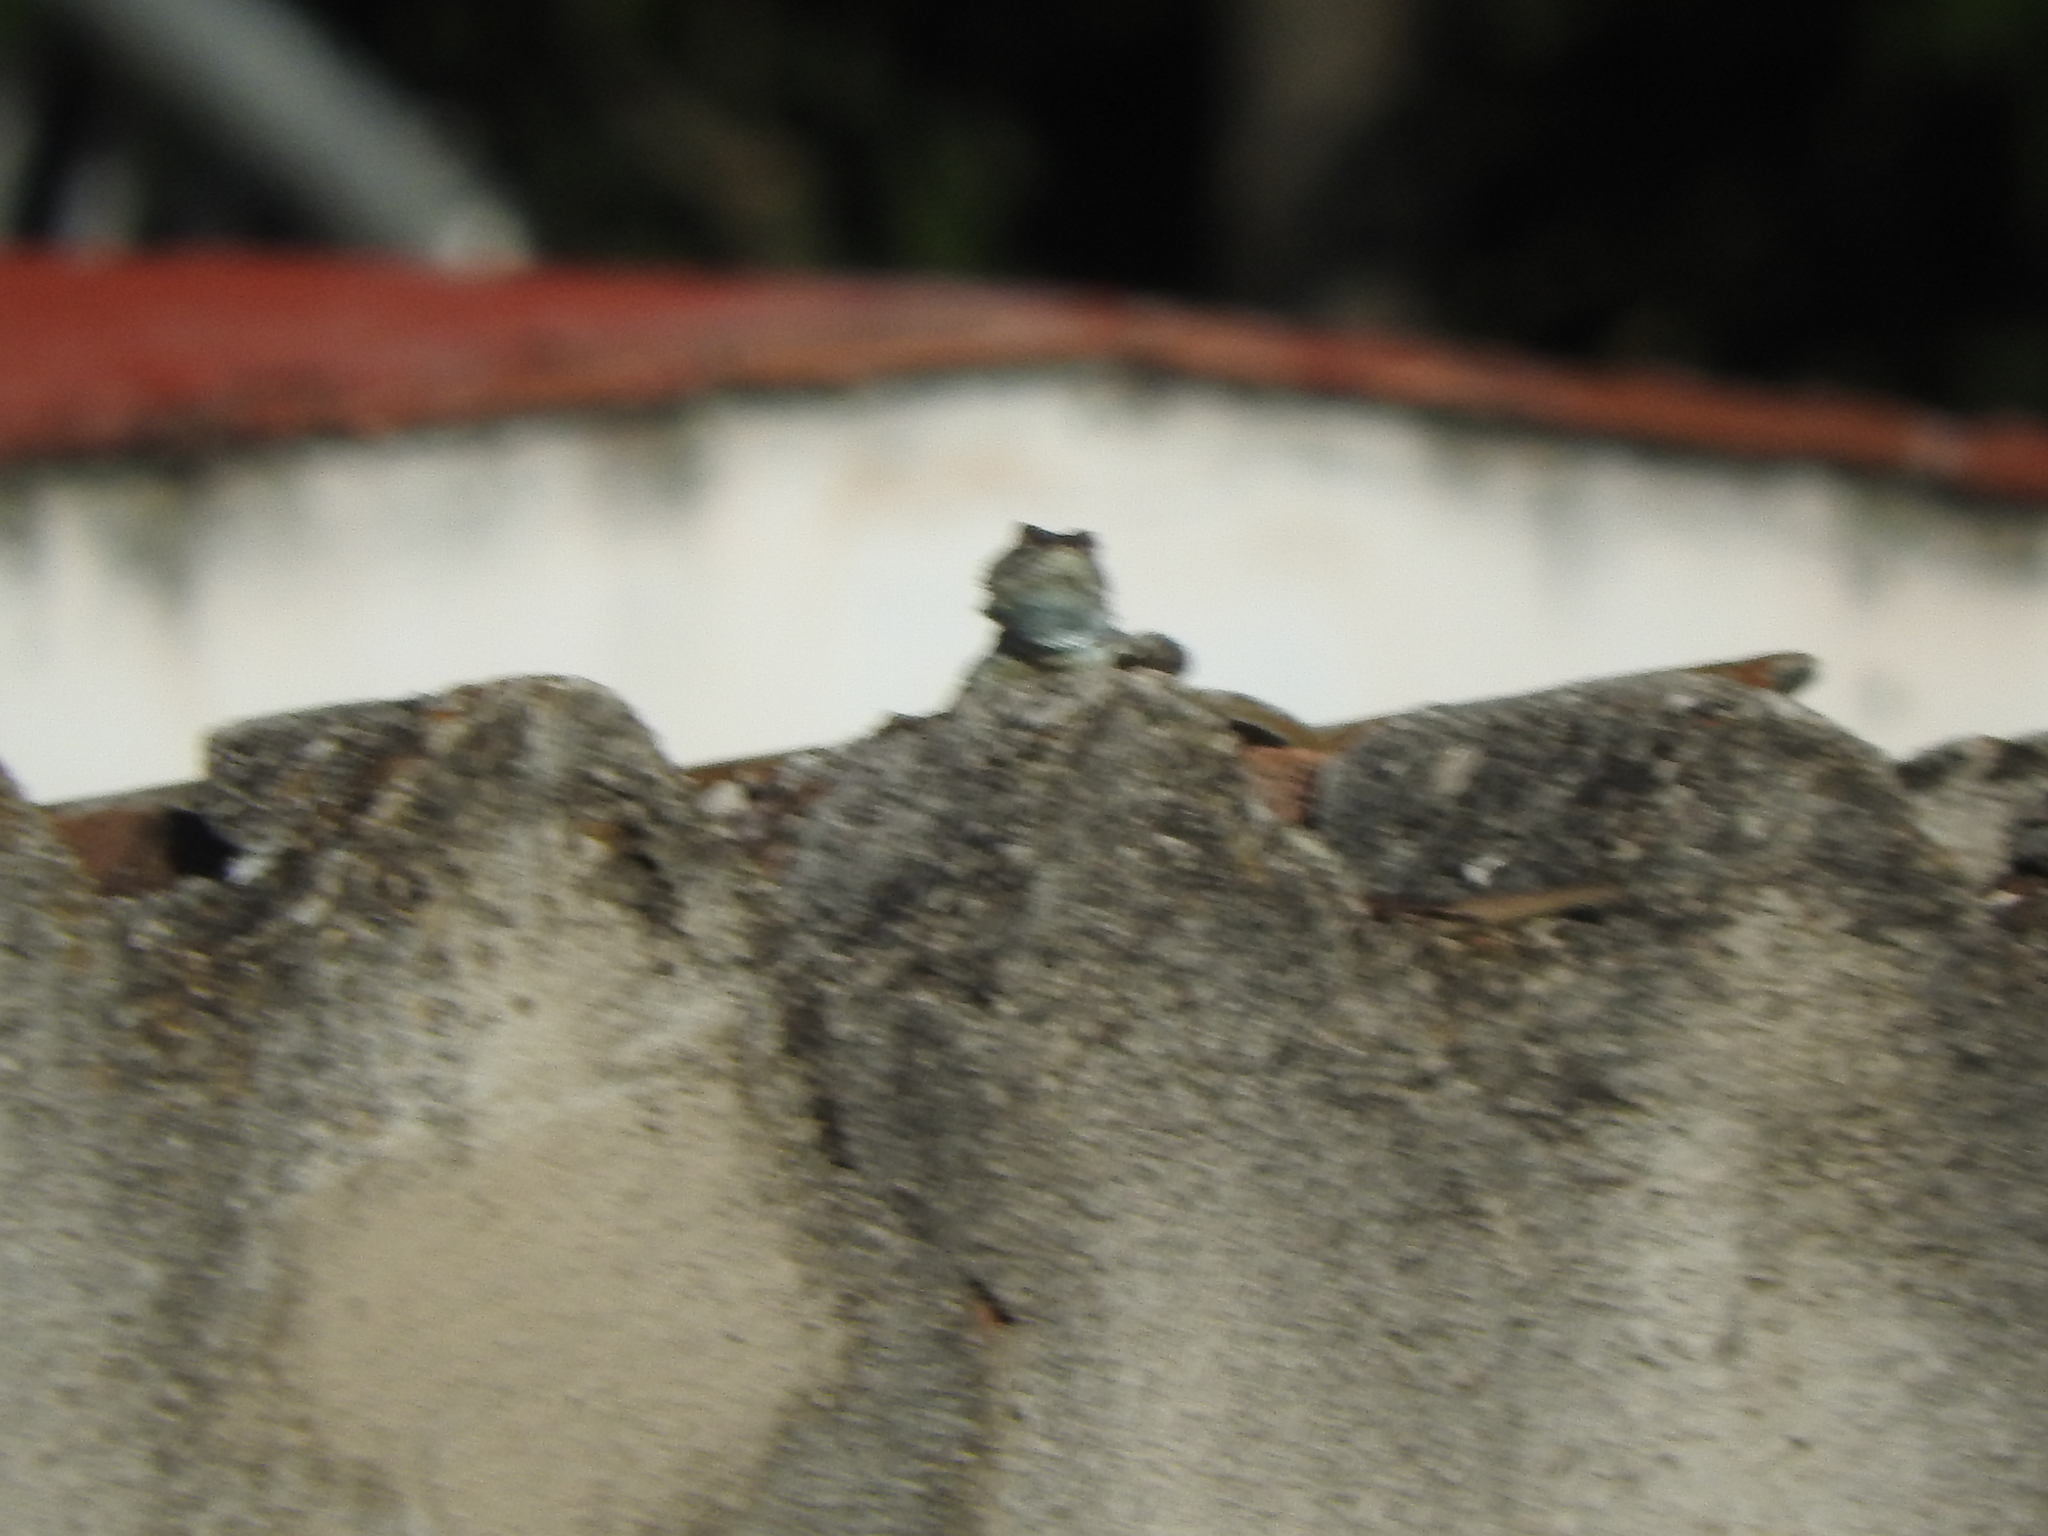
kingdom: Animalia
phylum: Chordata
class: Squamata
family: Phrynosomatidae
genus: Sceloporus
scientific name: Sceloporus torquatus
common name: Central plateau torquate lizard [melanogaster]
